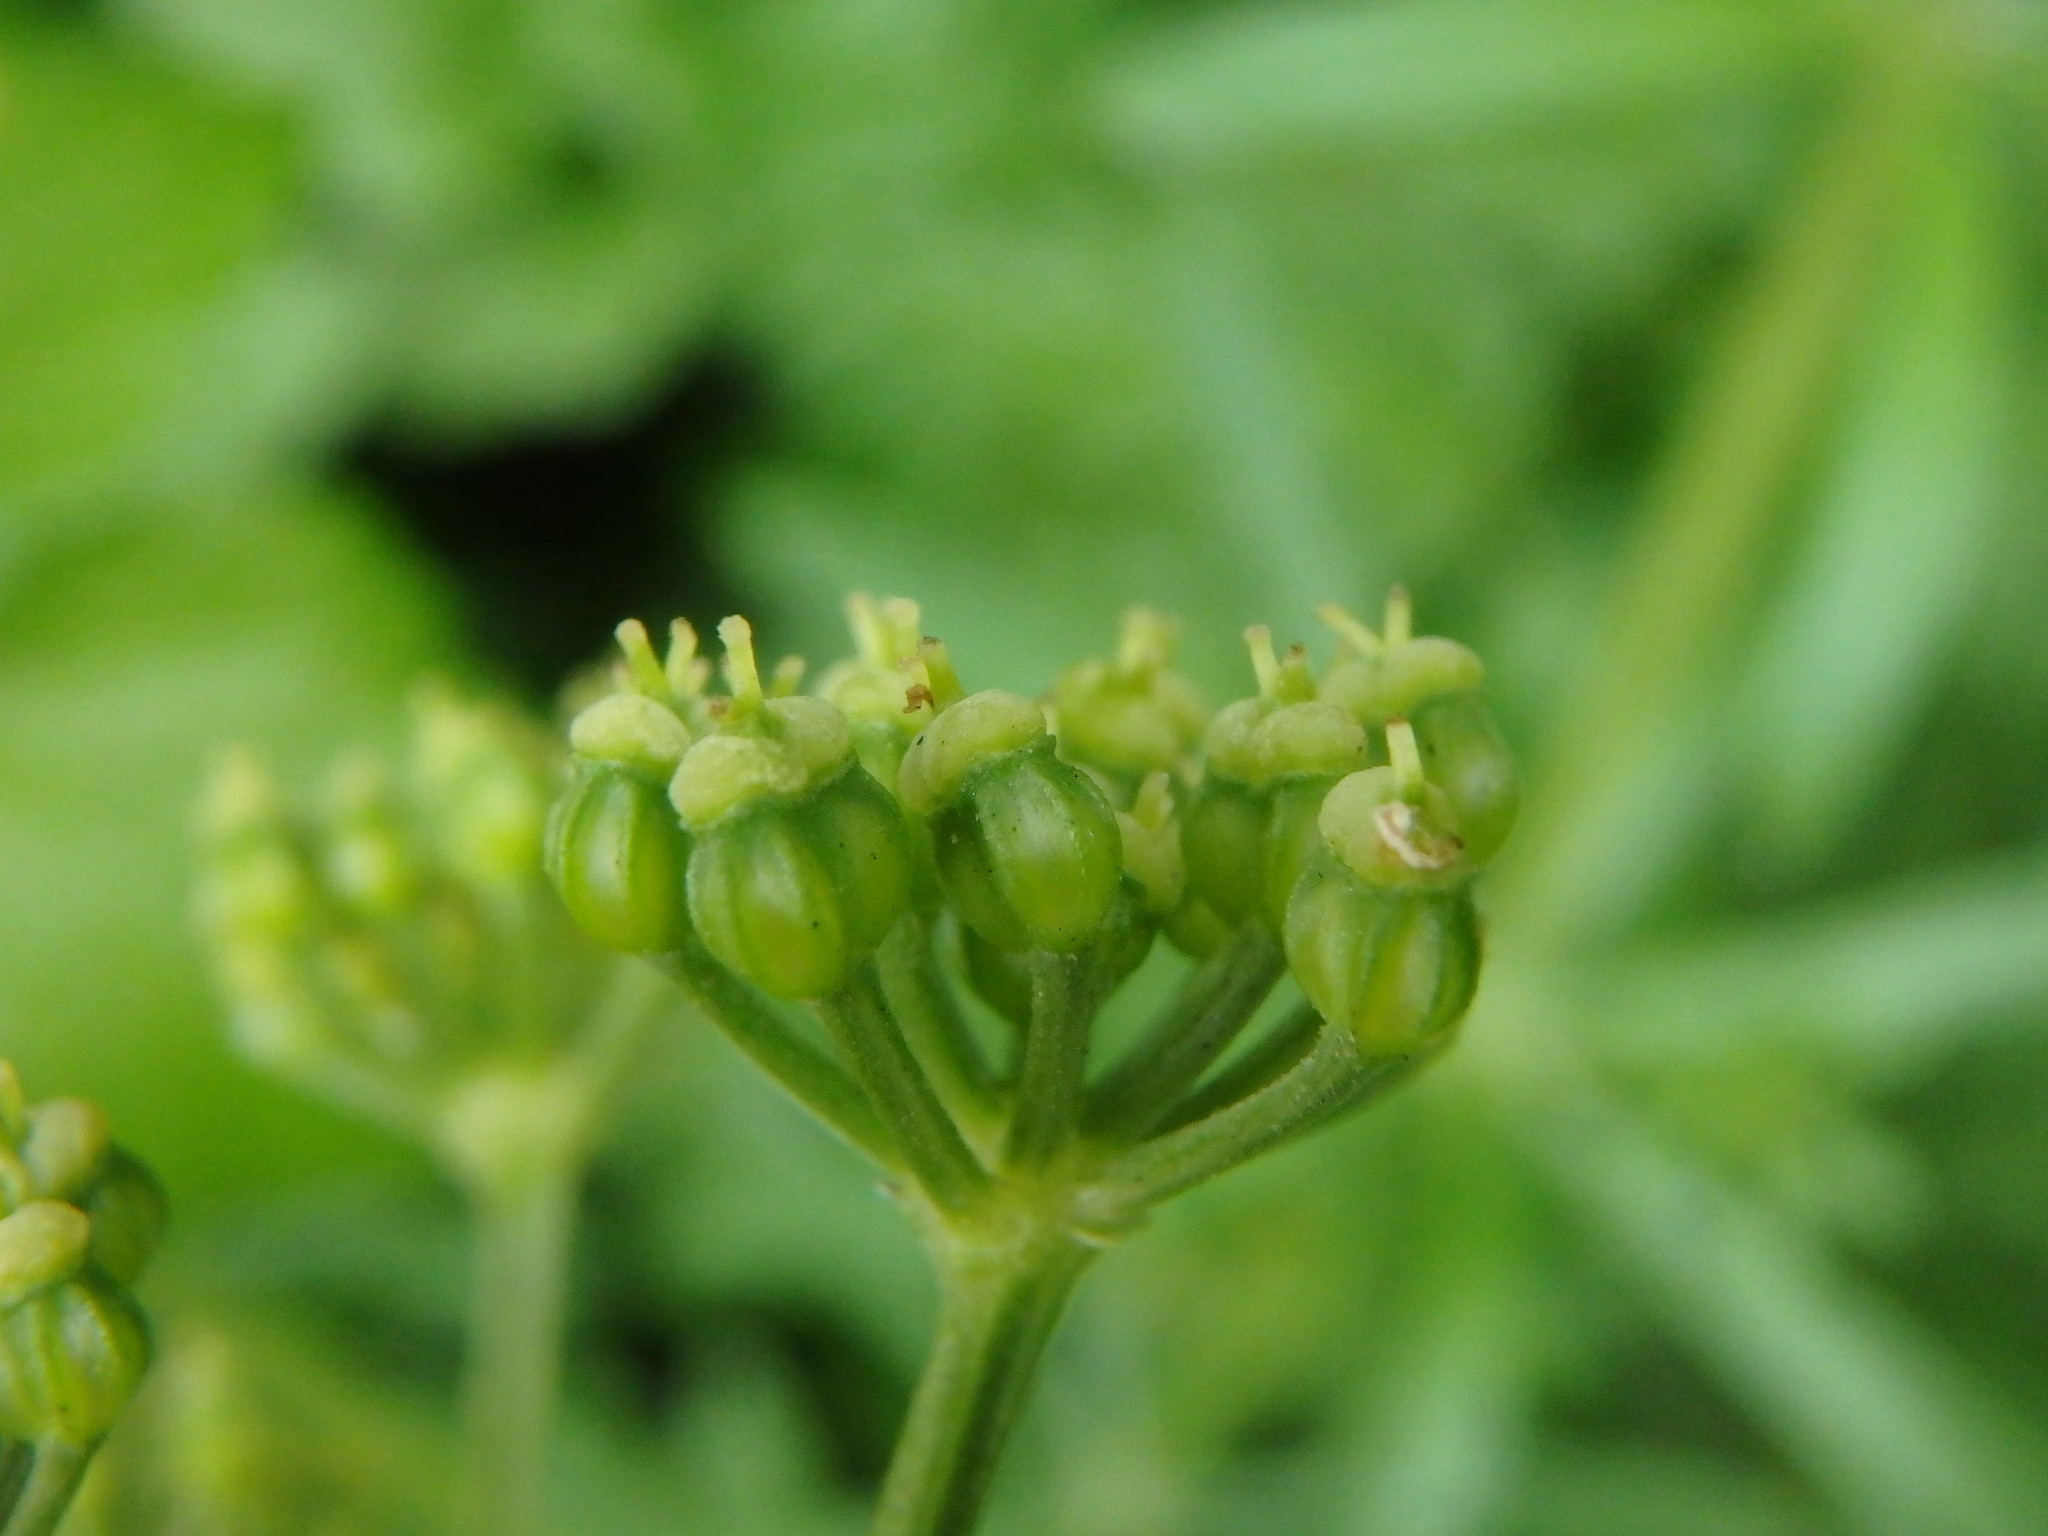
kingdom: Plantae
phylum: Tracheophyta
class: Magnoliopsida
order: Apiales
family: Apiaceae
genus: Smyrnium
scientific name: Smyrnium olusatrum
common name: Alexanders
